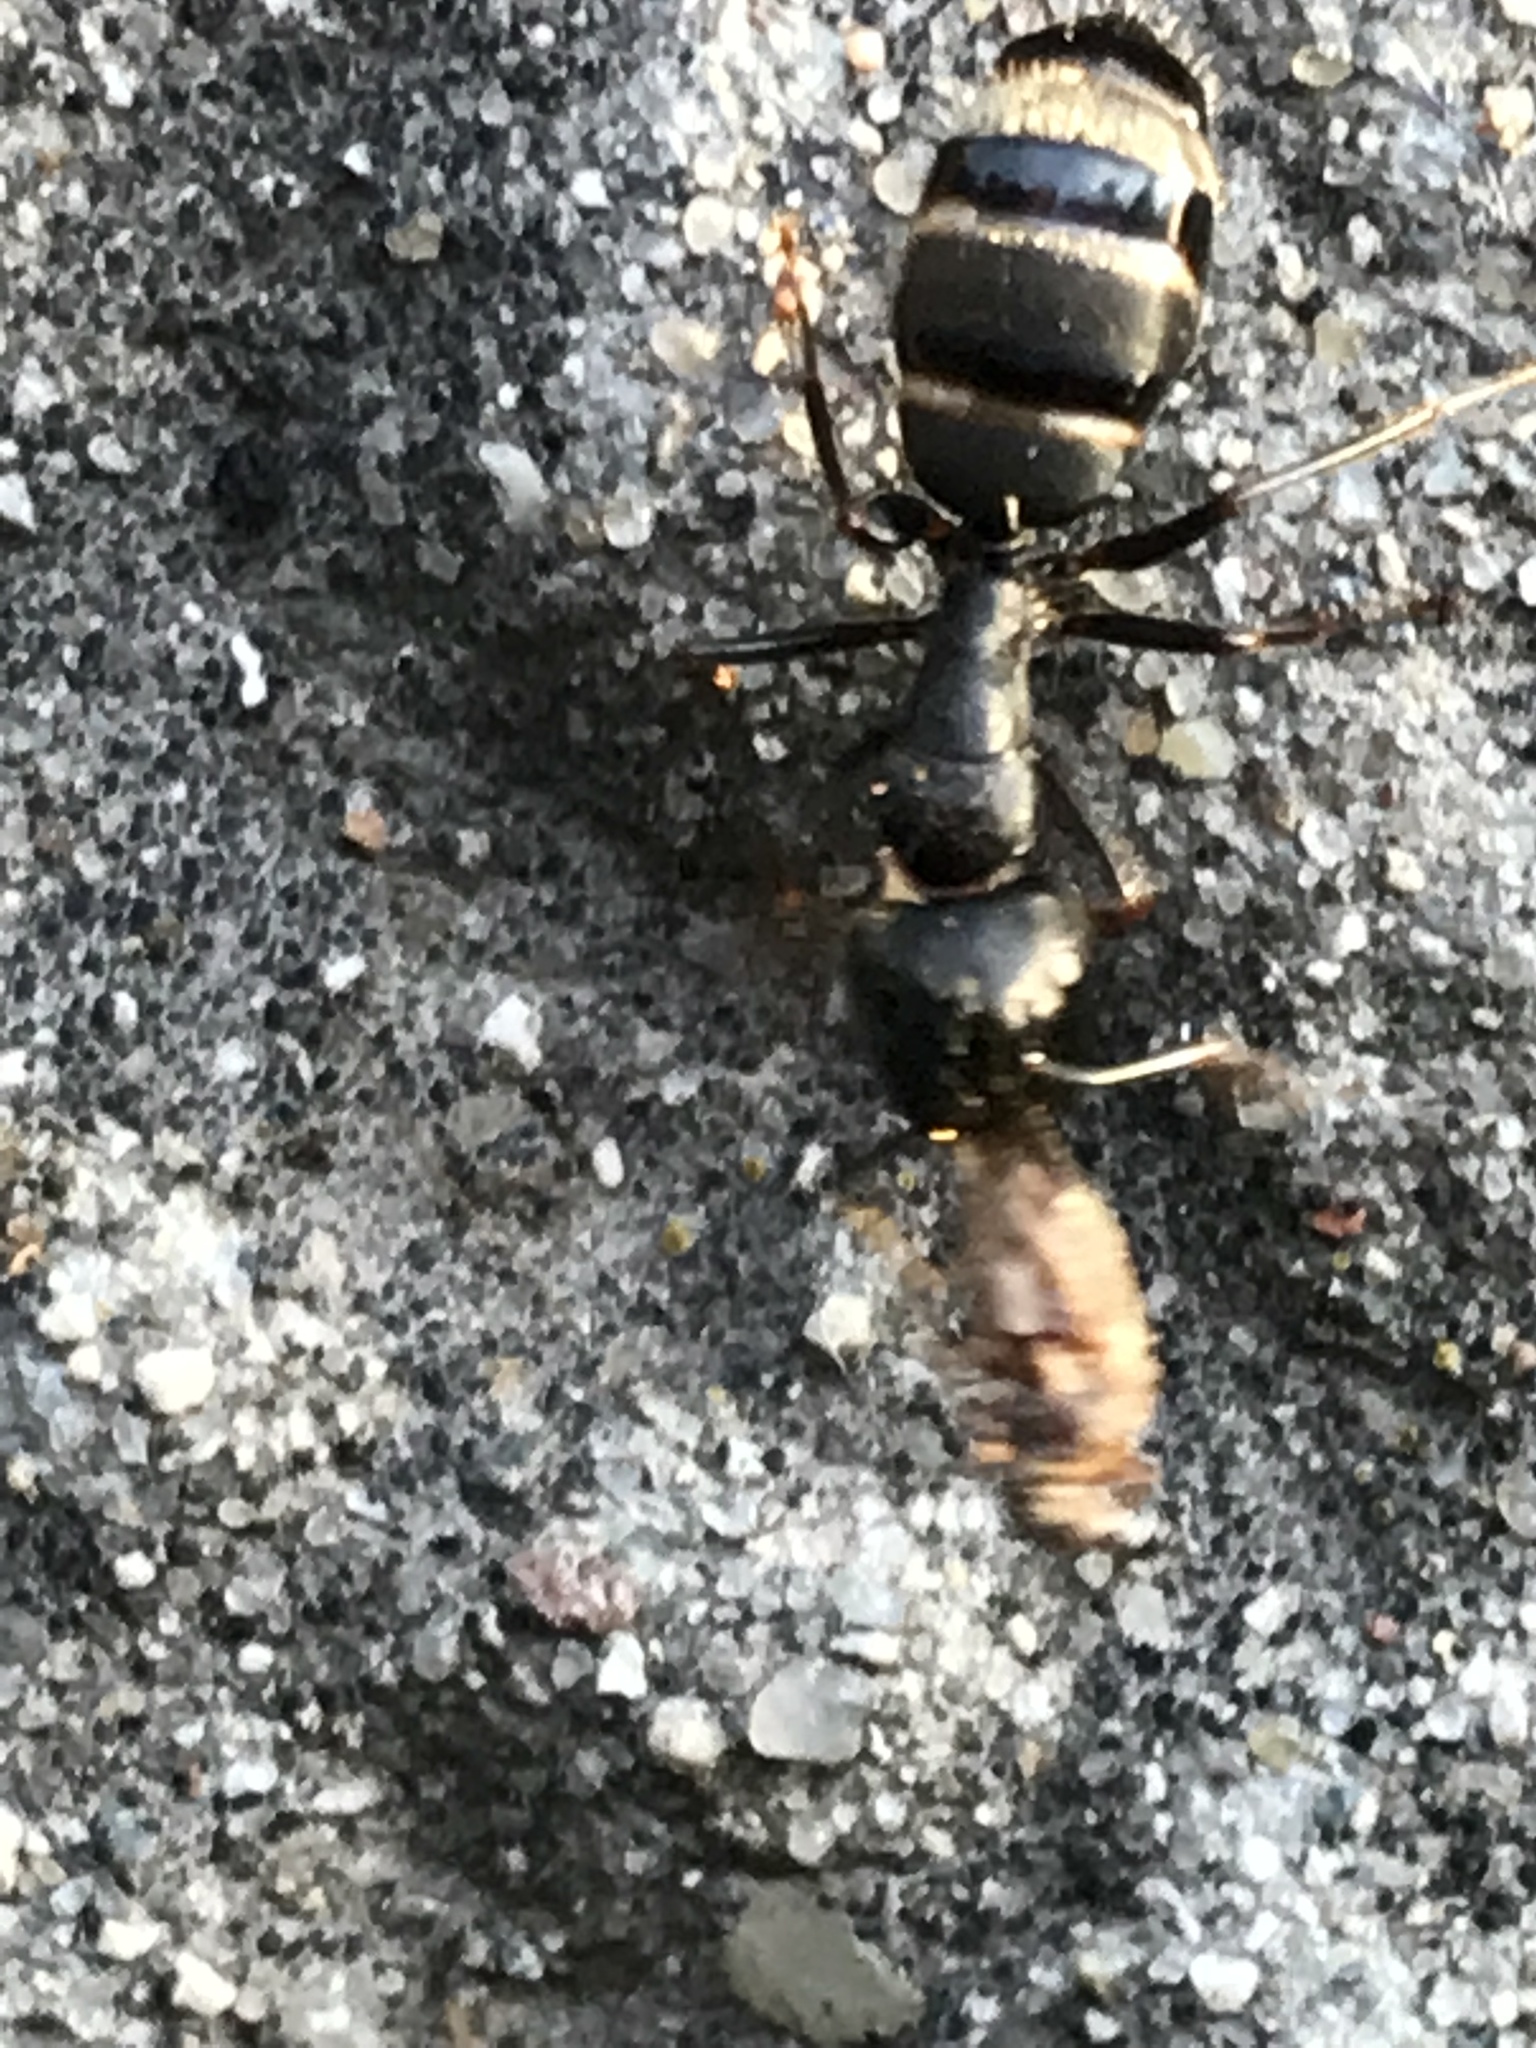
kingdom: Animalia
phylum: Arthropoda
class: Insecta
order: Hymenoptera
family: Formicidae
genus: Camponotus
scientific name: Camponotus pennsylvanicus
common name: Black carpenter ant
